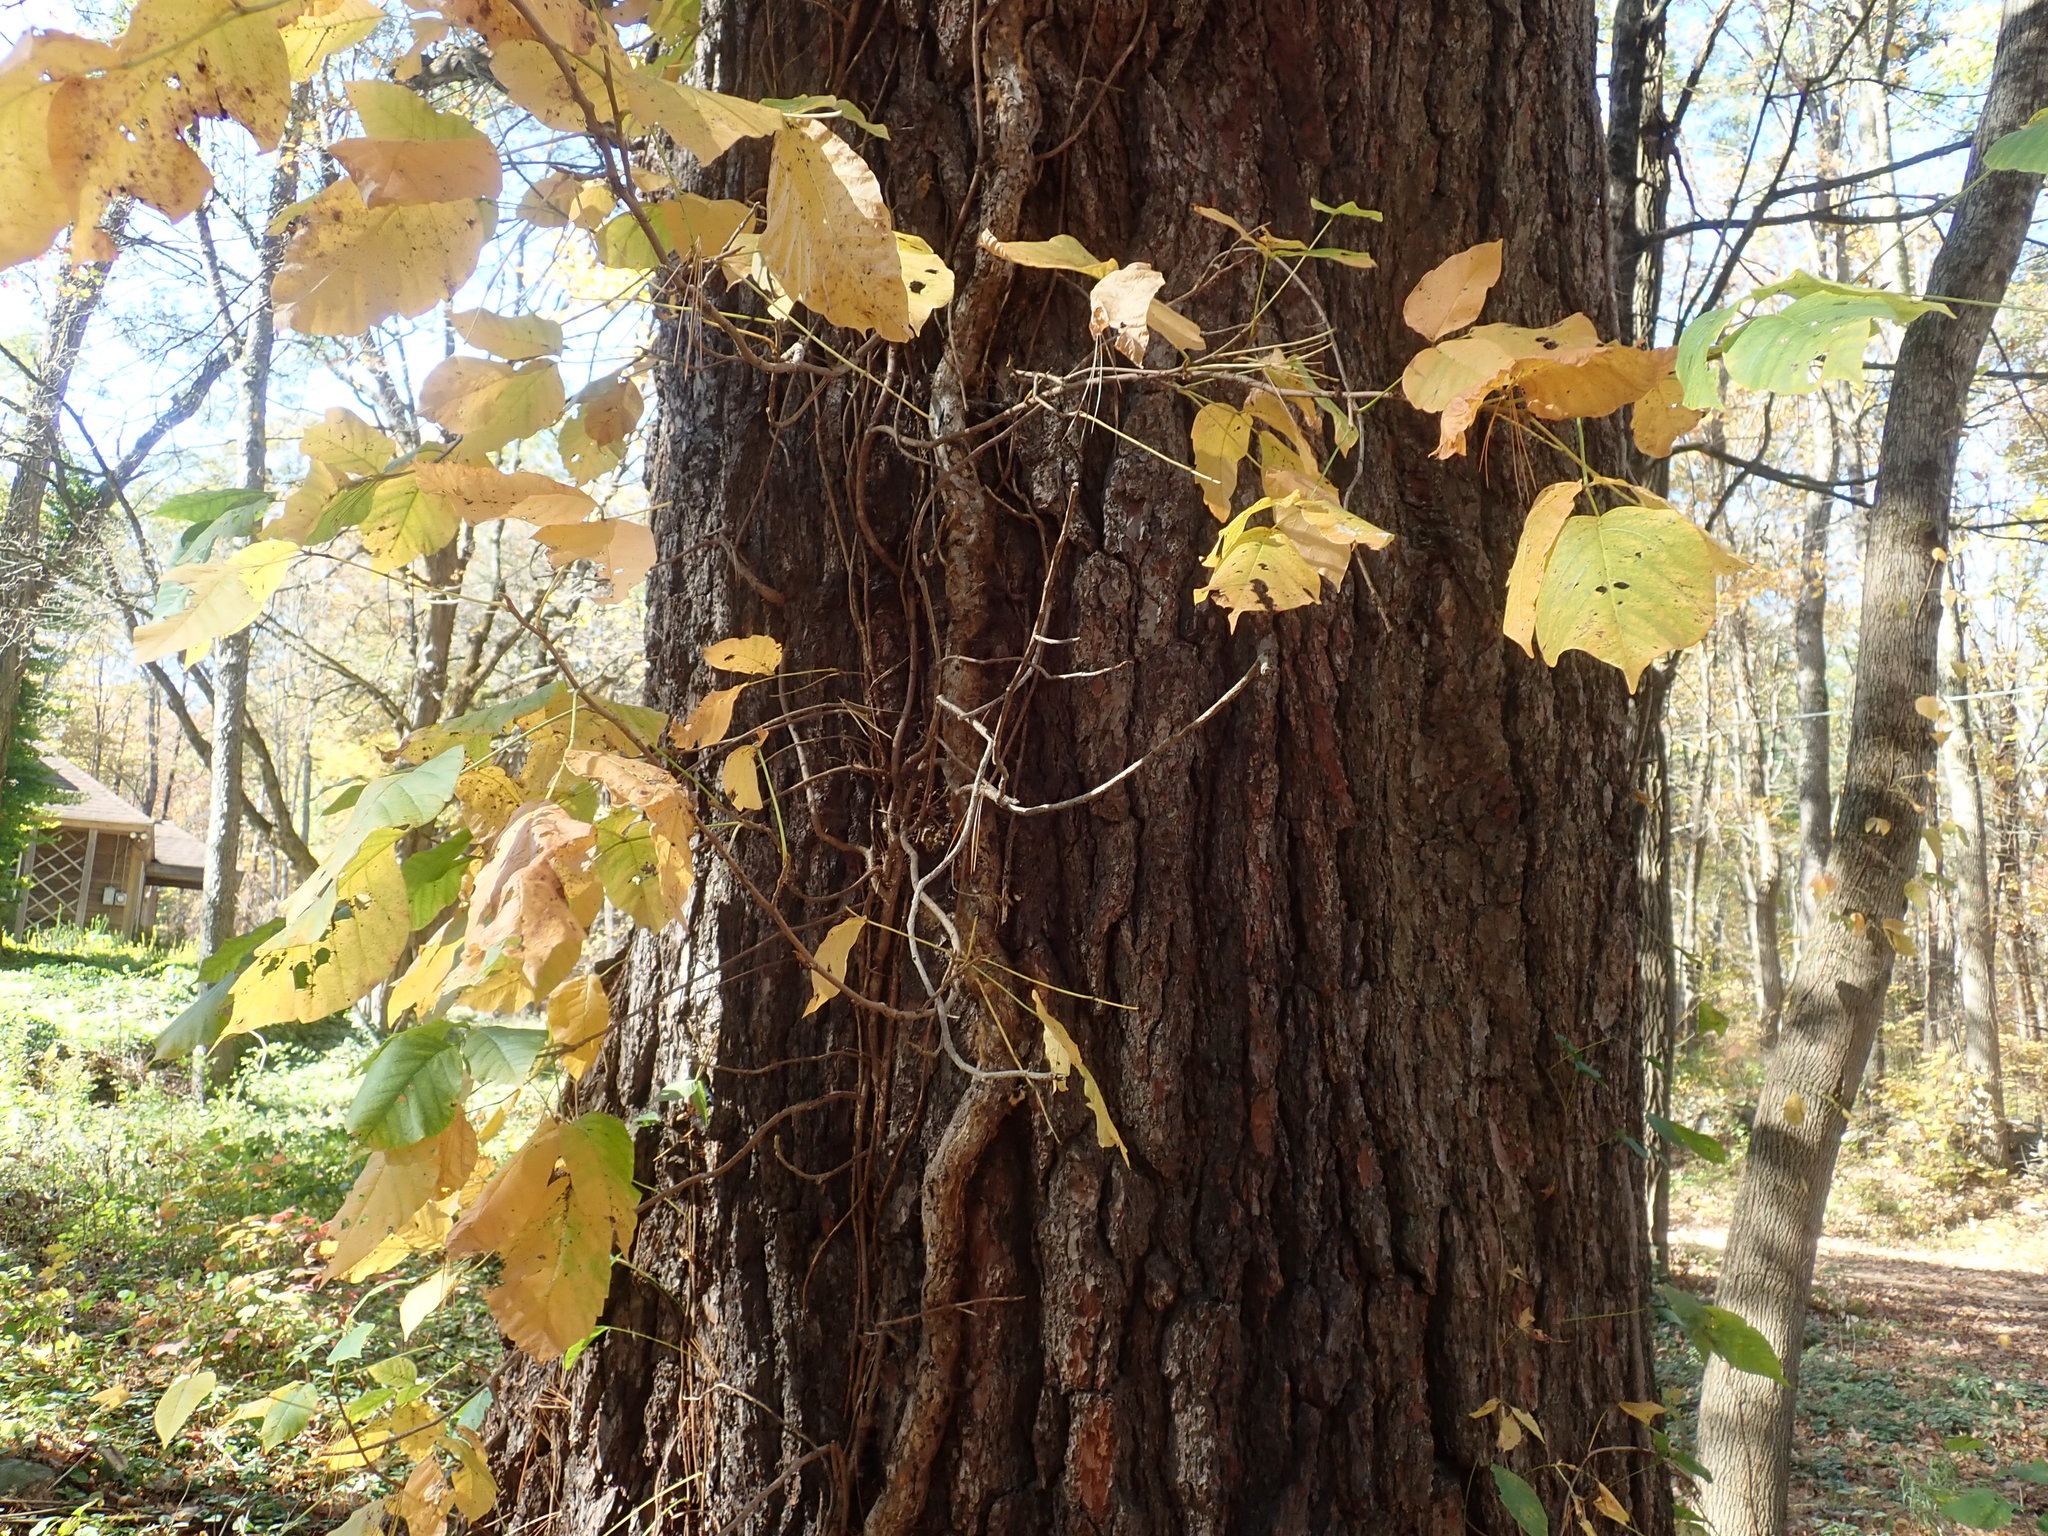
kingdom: Plantae
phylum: Tracheophyta
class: Magnoliopsida
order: Sapindales
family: Anacardiaceae
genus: Toxicodendron
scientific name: Toxicodendron radicans
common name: Poison ivy
